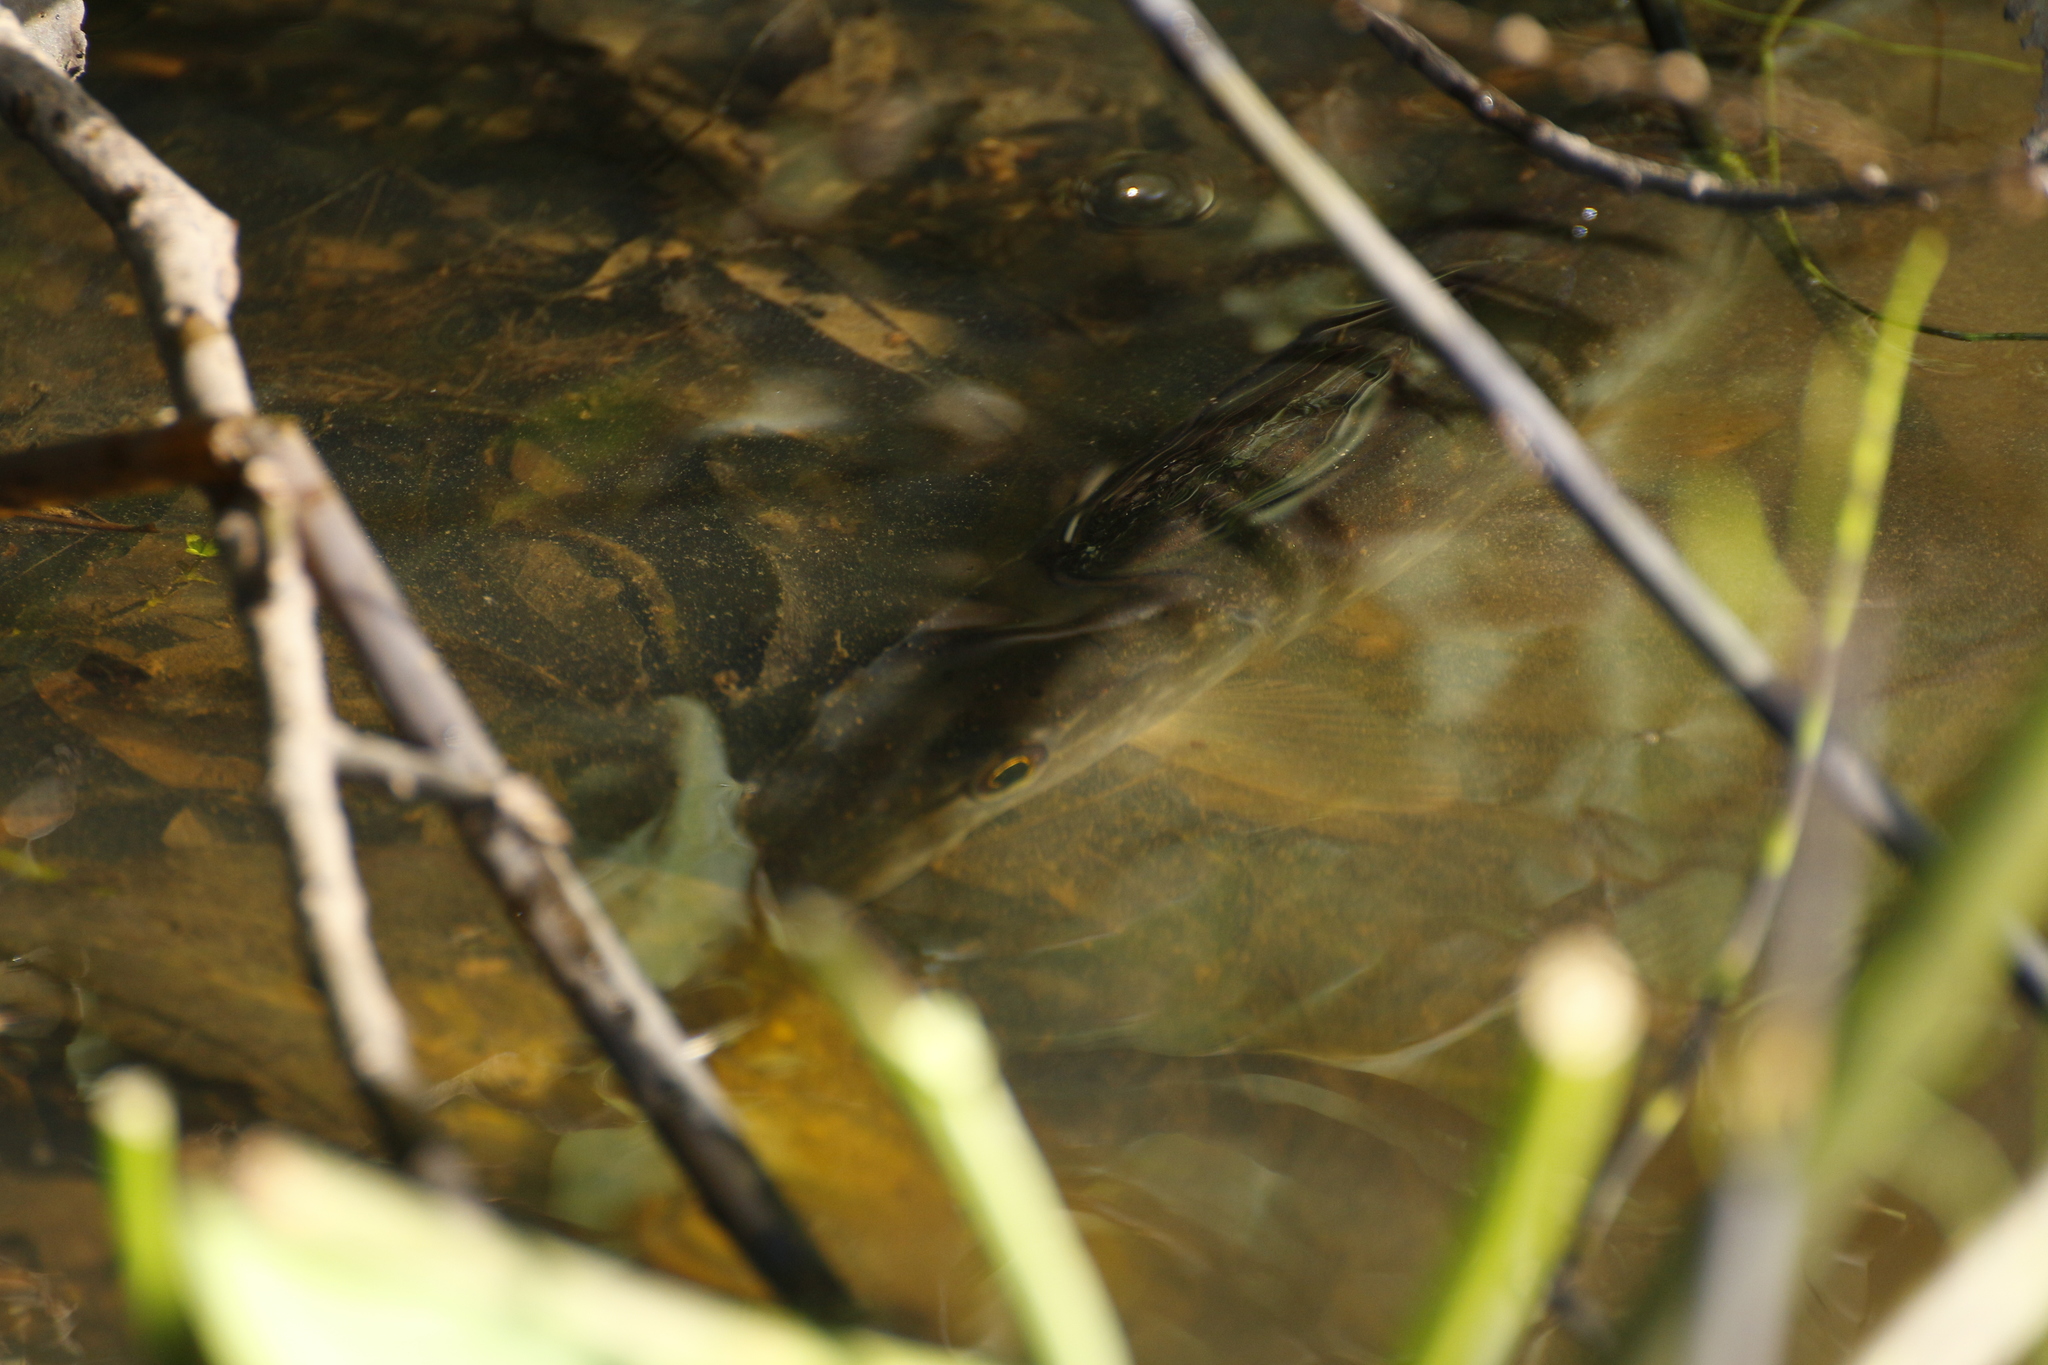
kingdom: Animalia
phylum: Chordata
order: Esociformes
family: Esocidae
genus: Esox
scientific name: Esox lucius
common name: Northern pike
